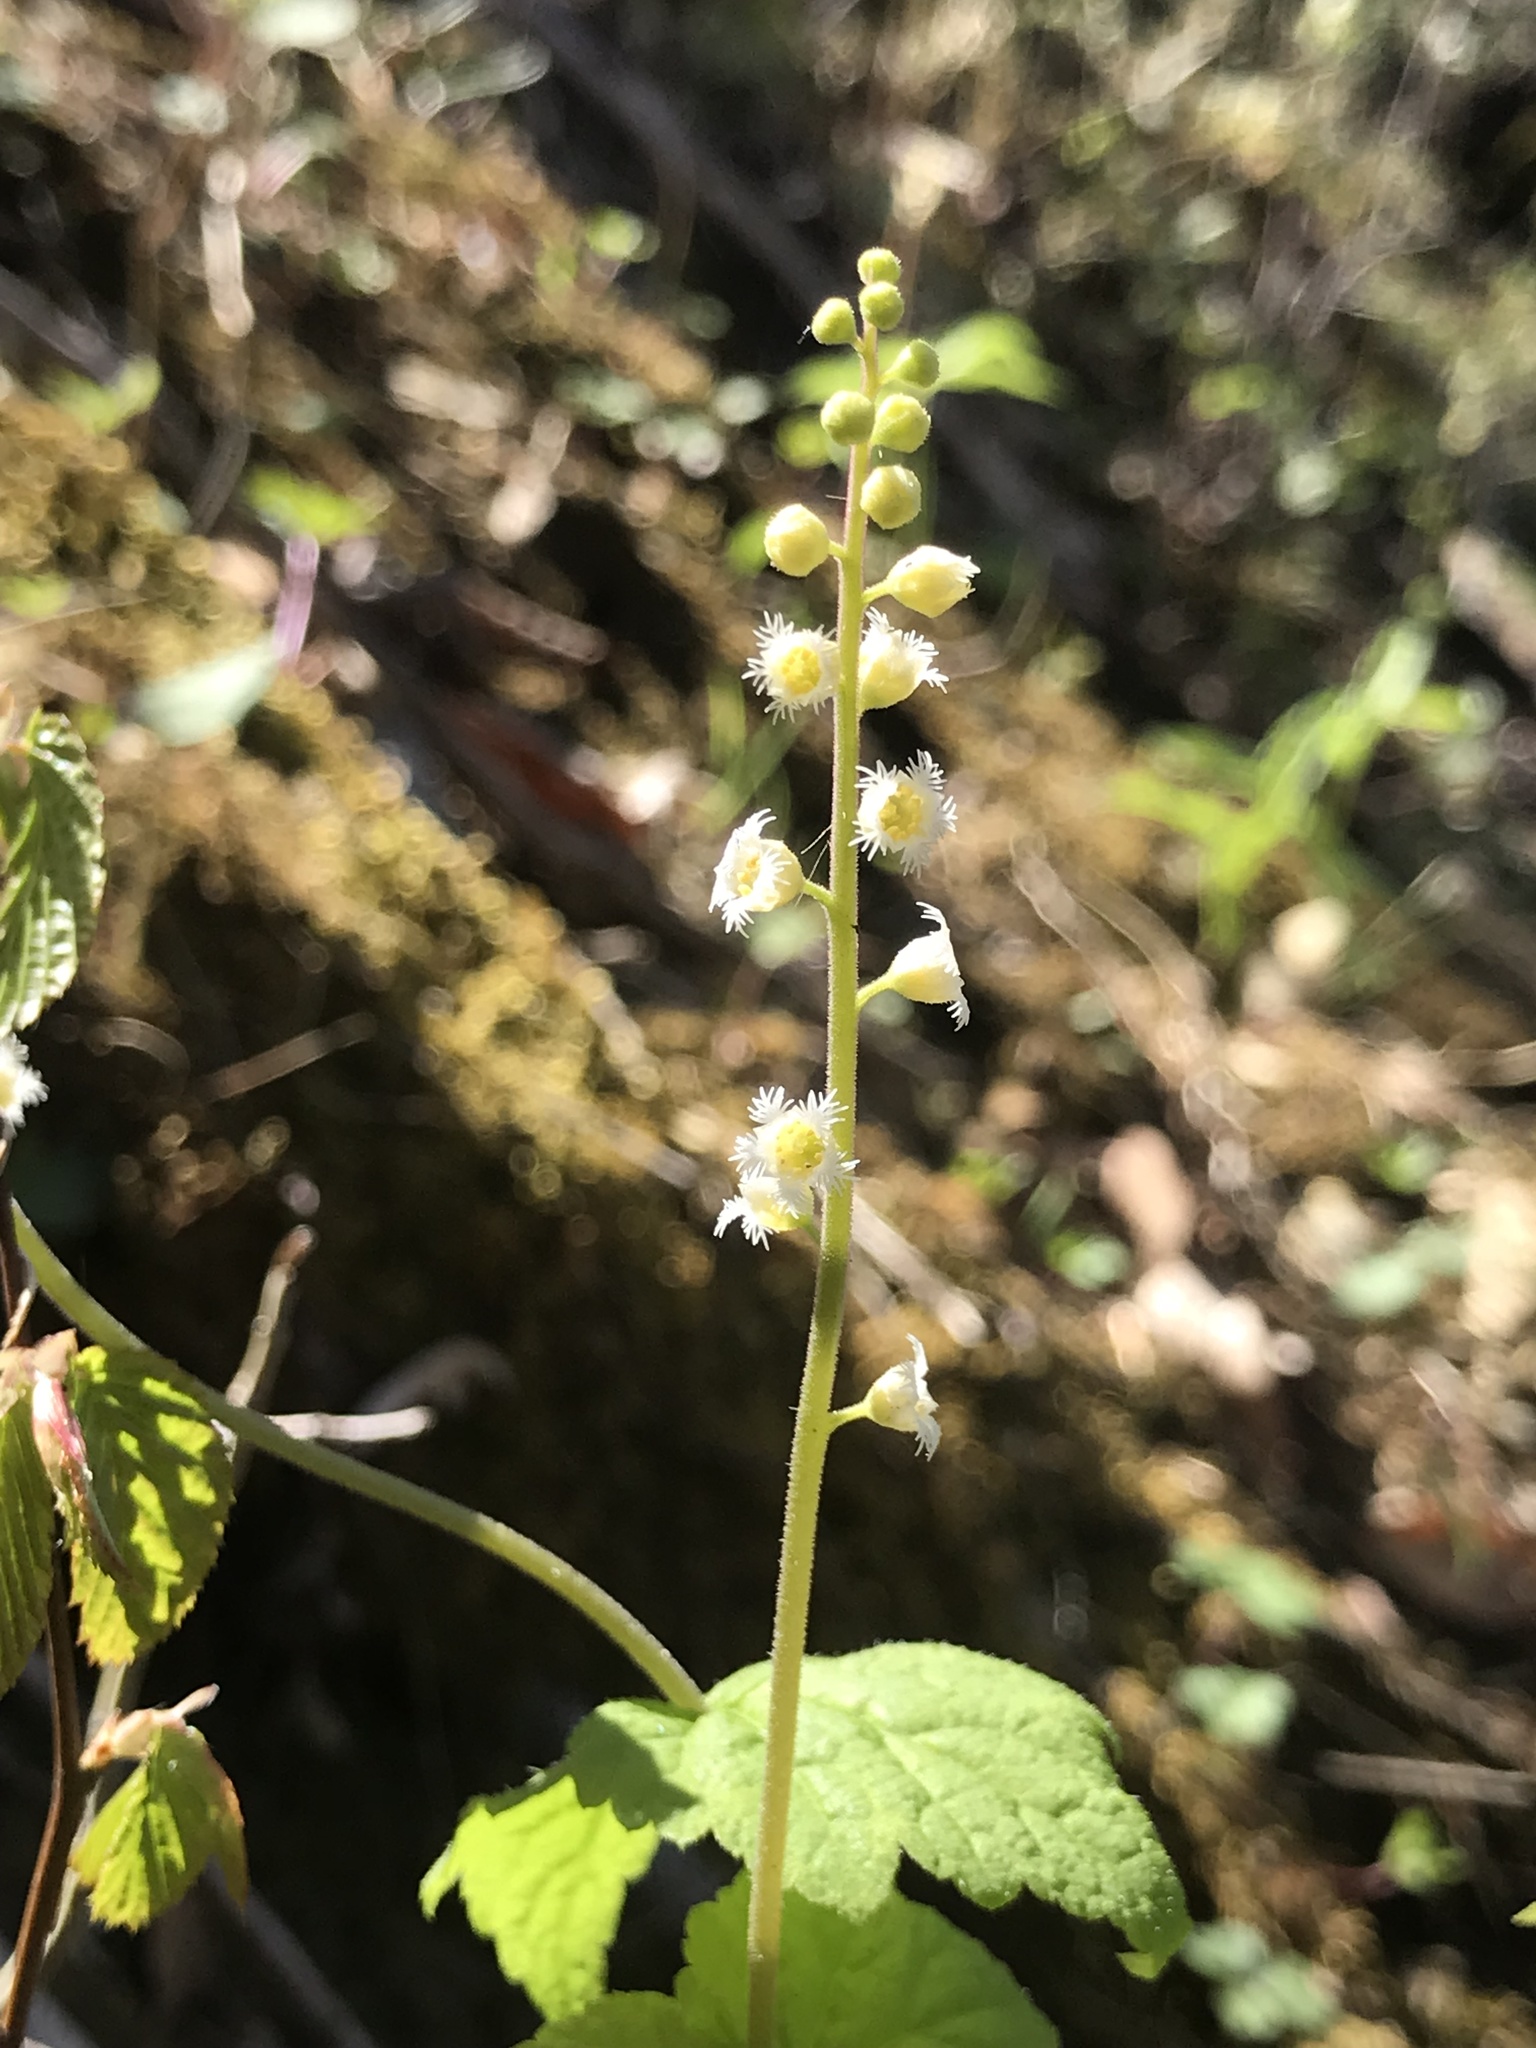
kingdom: Plantae
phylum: Tracheophyta
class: Magnoliopsida
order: Saxifragales
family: Saxifragaceae
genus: Mitella
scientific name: Mitella diphylla
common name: Coolwort
